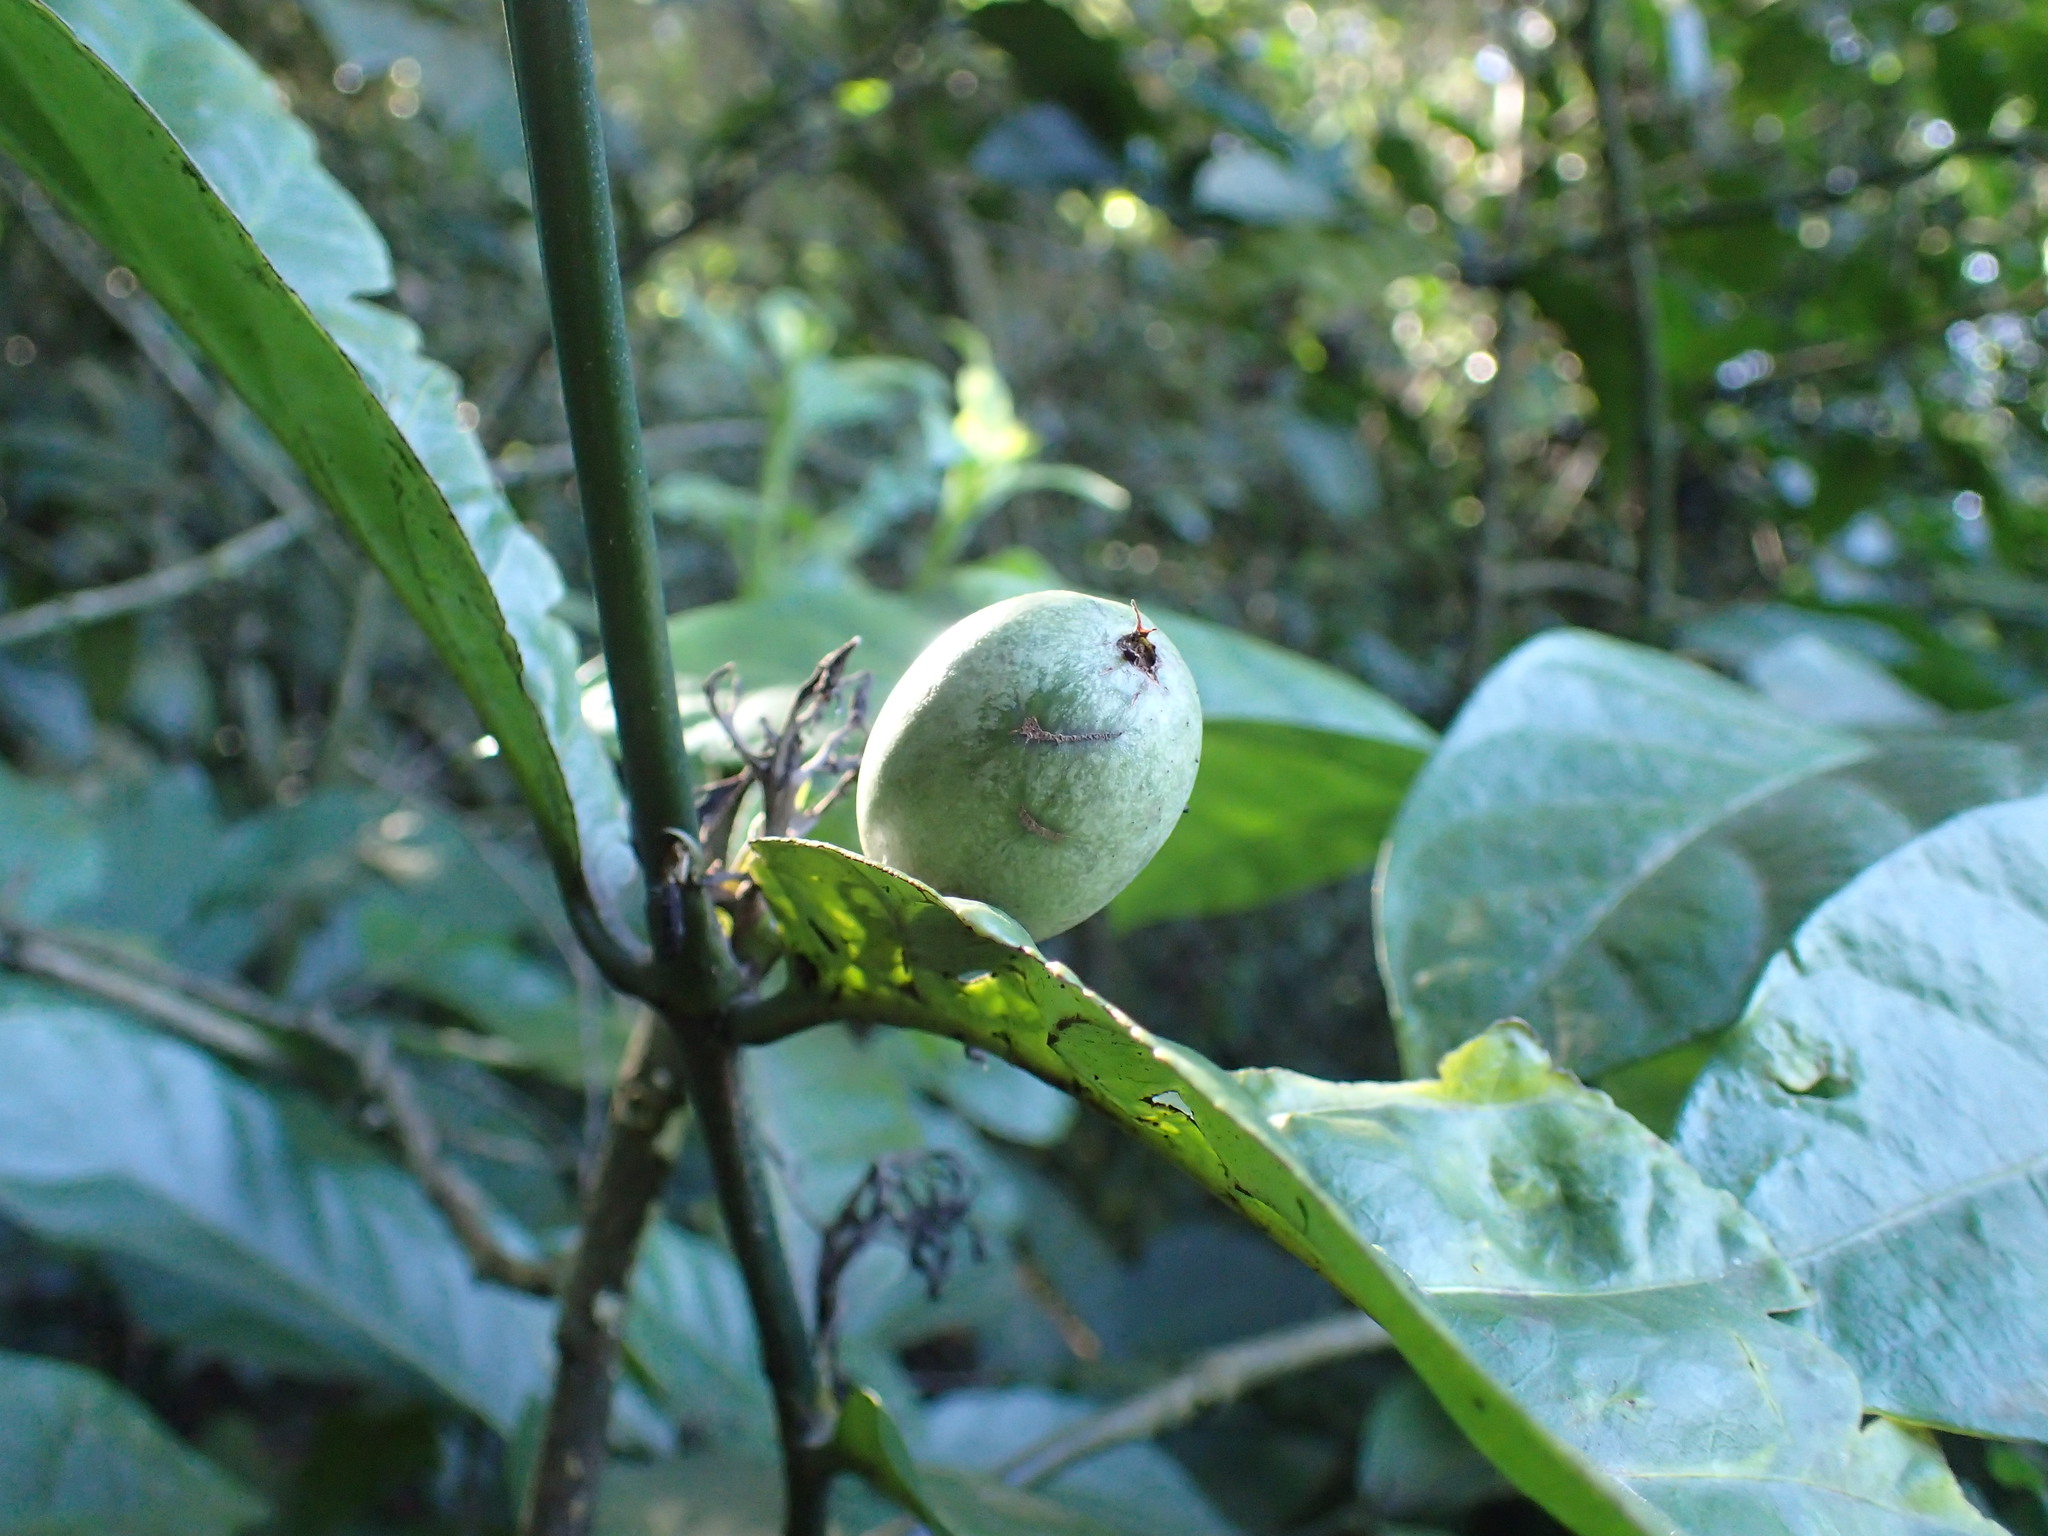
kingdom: Plantae
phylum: Tracheophyta
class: Magnoliopsida
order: Gentianales
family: Rubiaceae
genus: Oxyanthus
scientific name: Oxyanthus pyriformis
